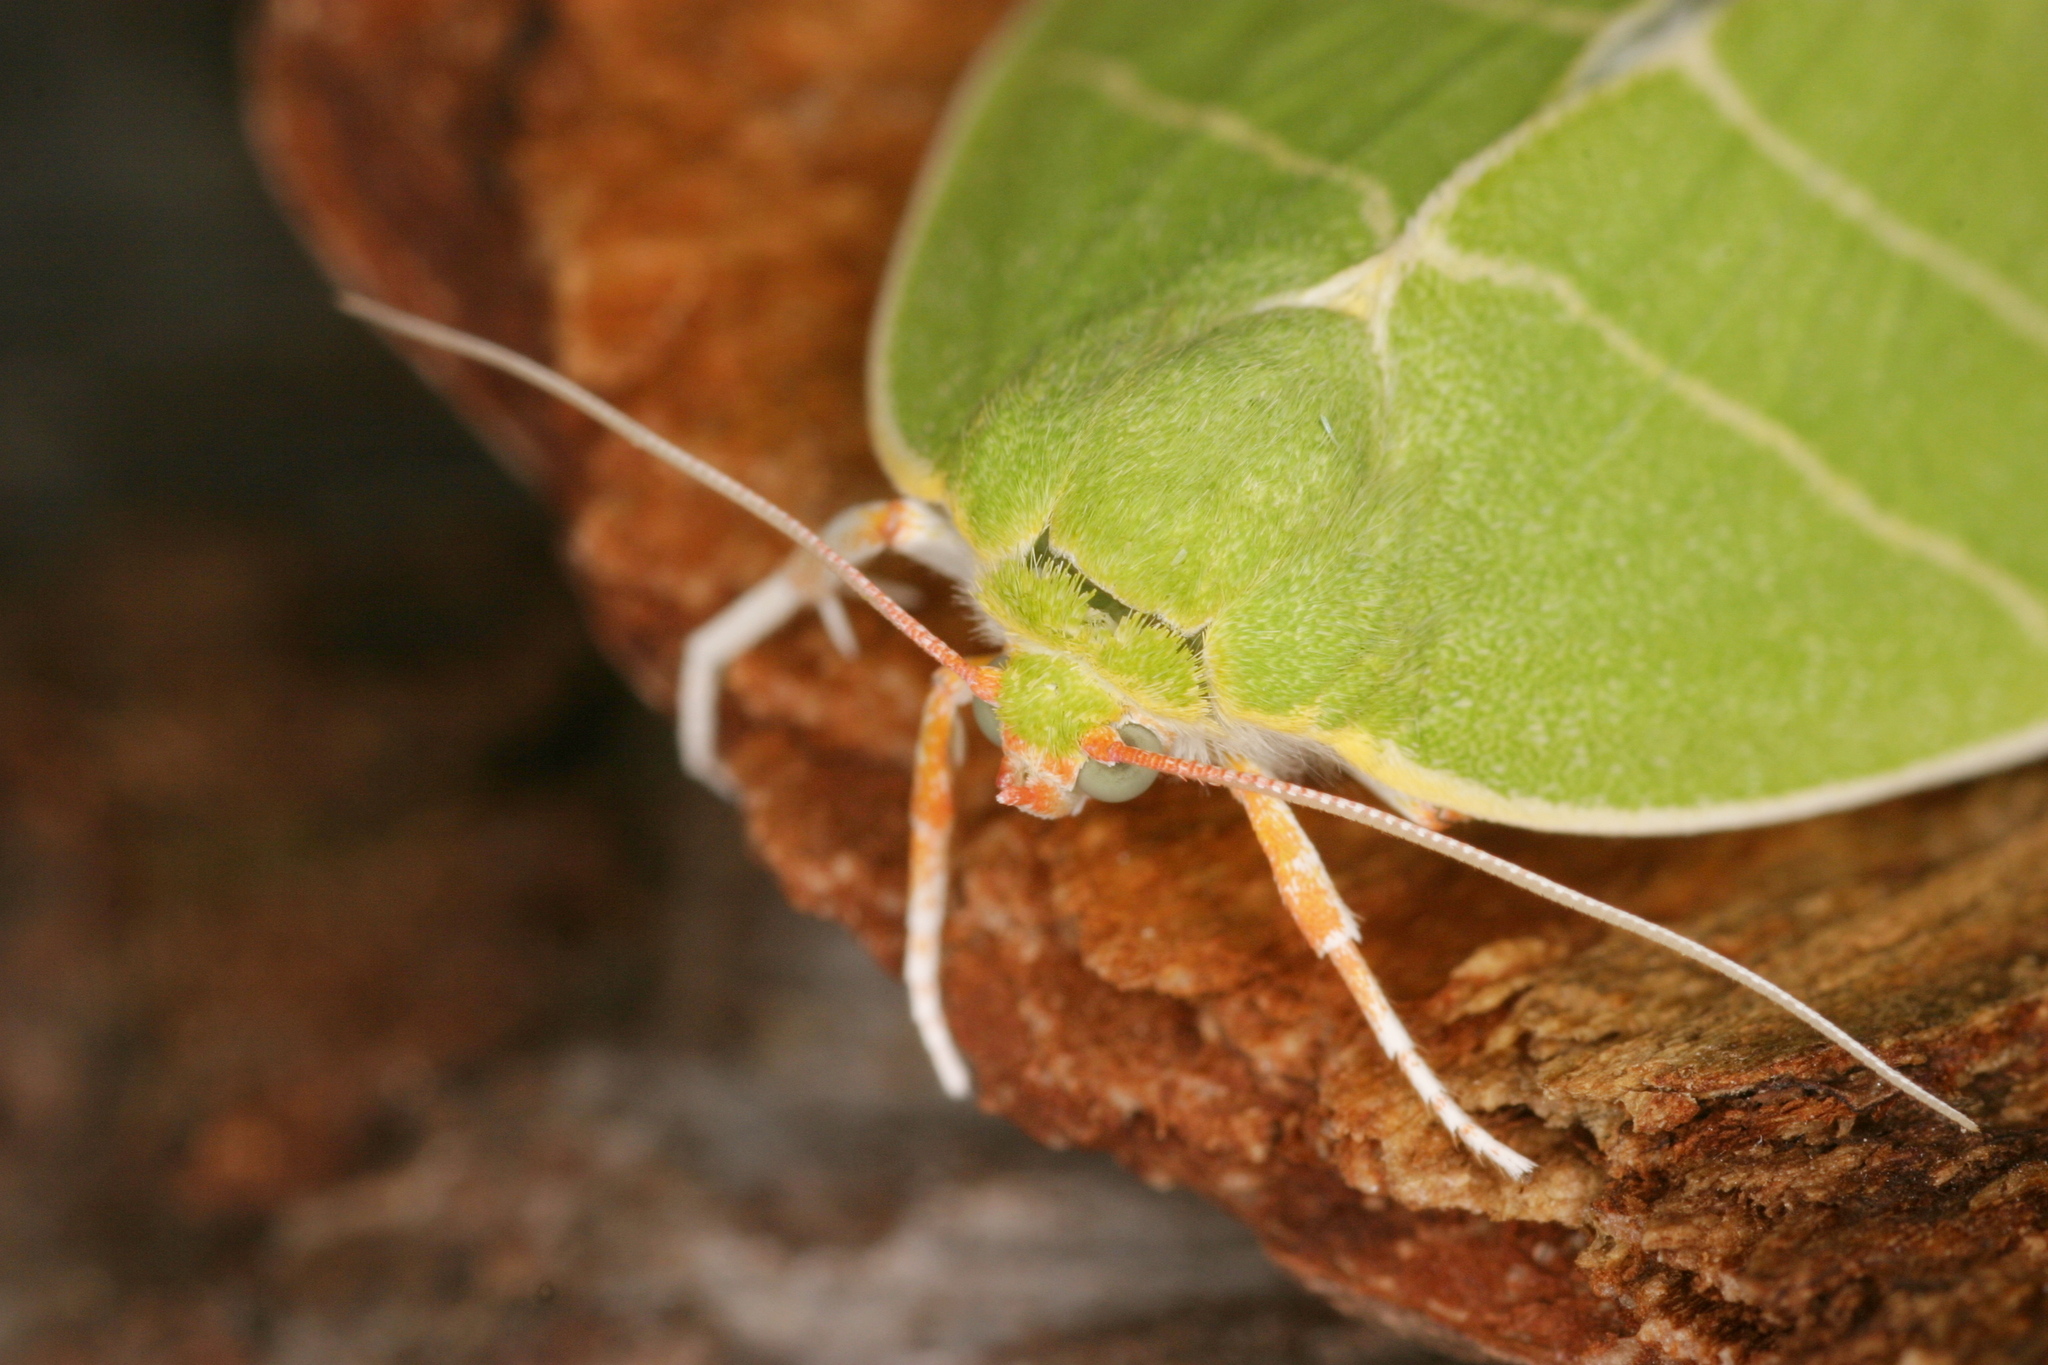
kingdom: Animalia
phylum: Arthropoda
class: Insecta
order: Lepidoptera
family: Nolidae
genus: Bena
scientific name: Bena bicolorana
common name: Scarce silver-lines
